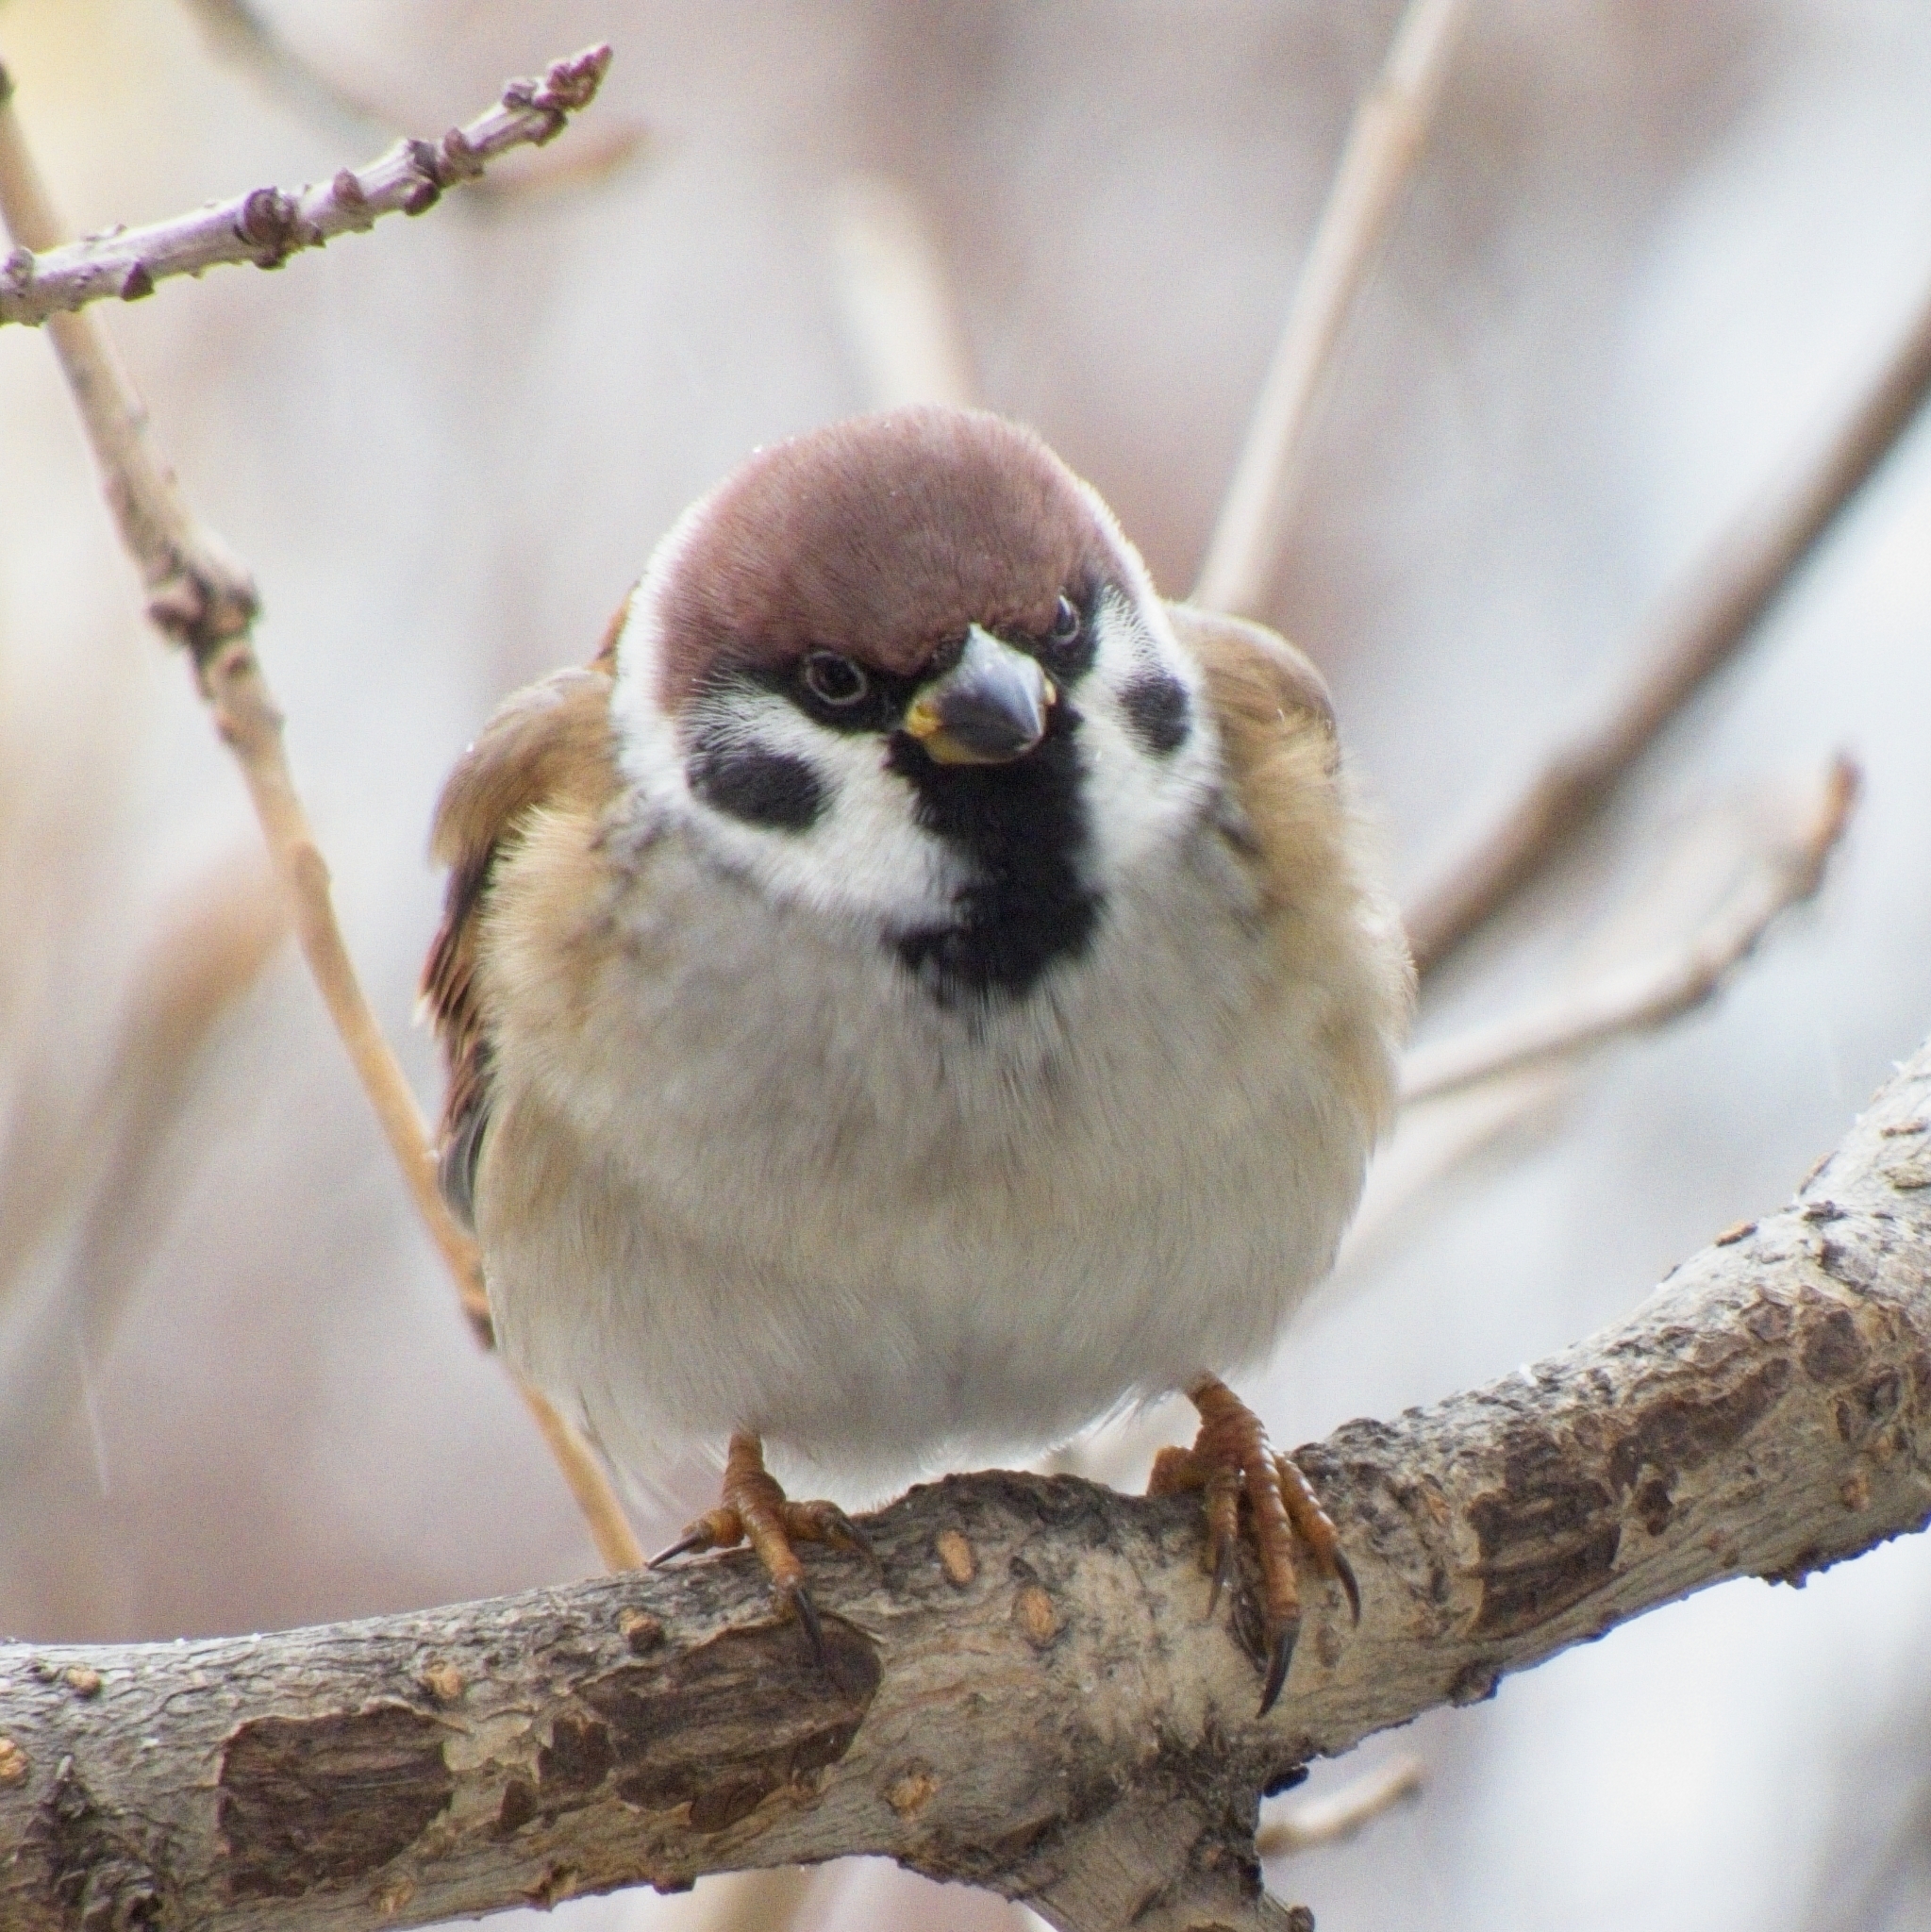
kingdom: Animalia
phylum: Chordata
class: Aves
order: Passeriformes
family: Passeridae
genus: Passer
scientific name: Passer montanus
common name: Eurasian tree sparrow
